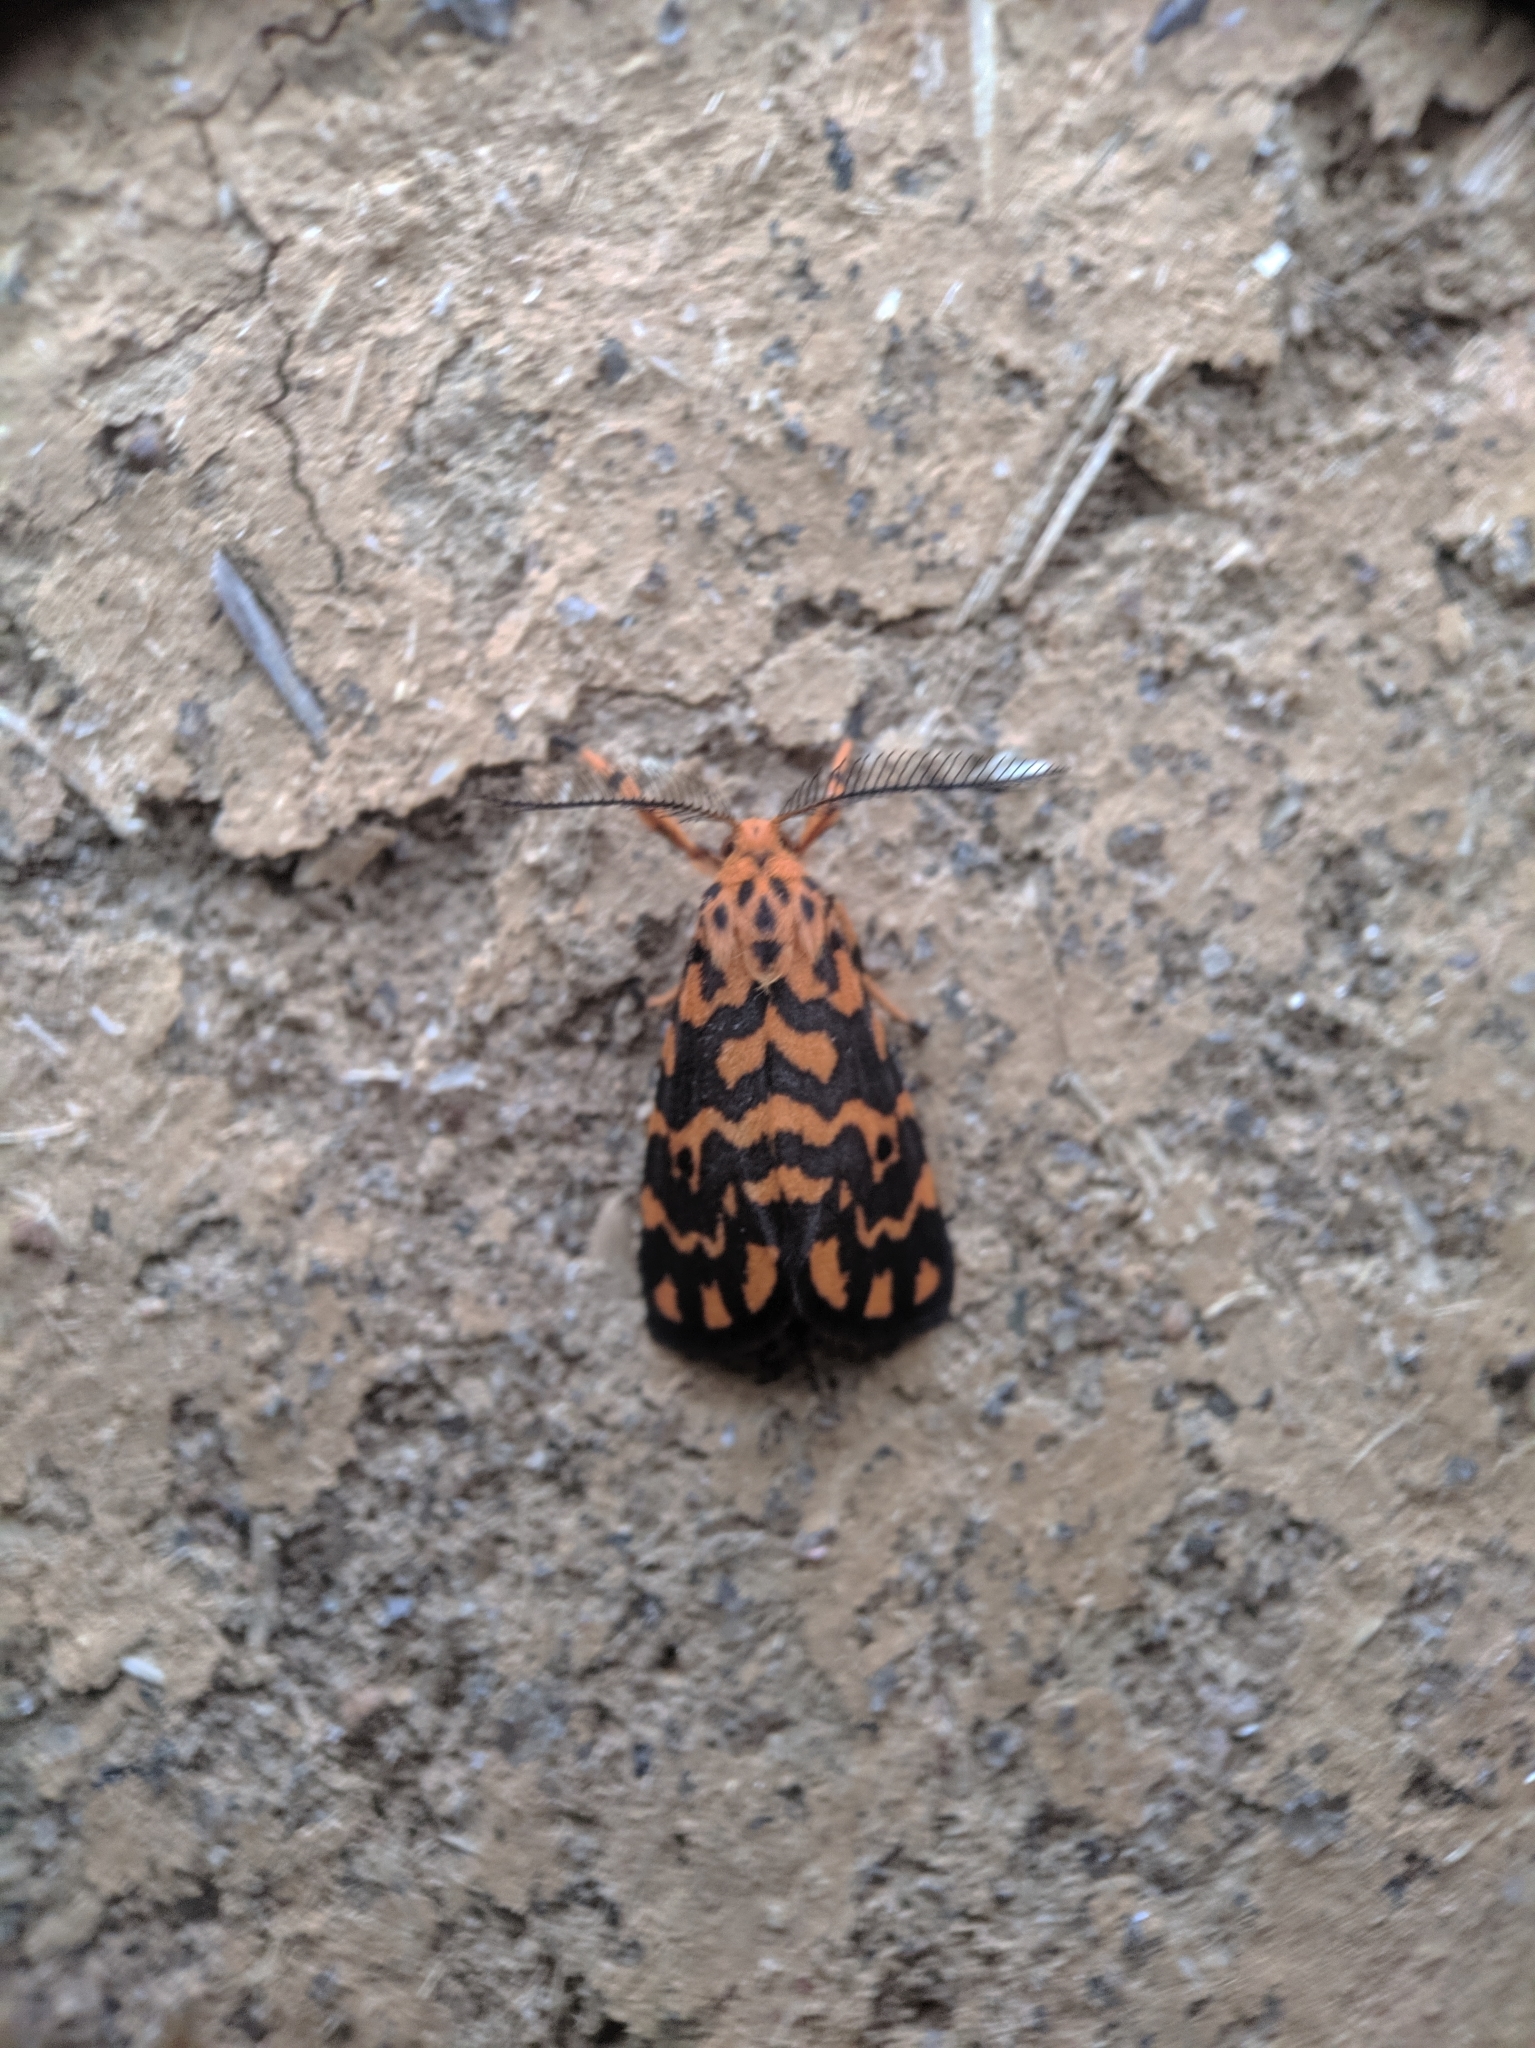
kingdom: Animalia
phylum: Arthropoda
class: Insecta
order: Lepidoptera
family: Erebidae
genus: Nepita
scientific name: Nepita conferta
